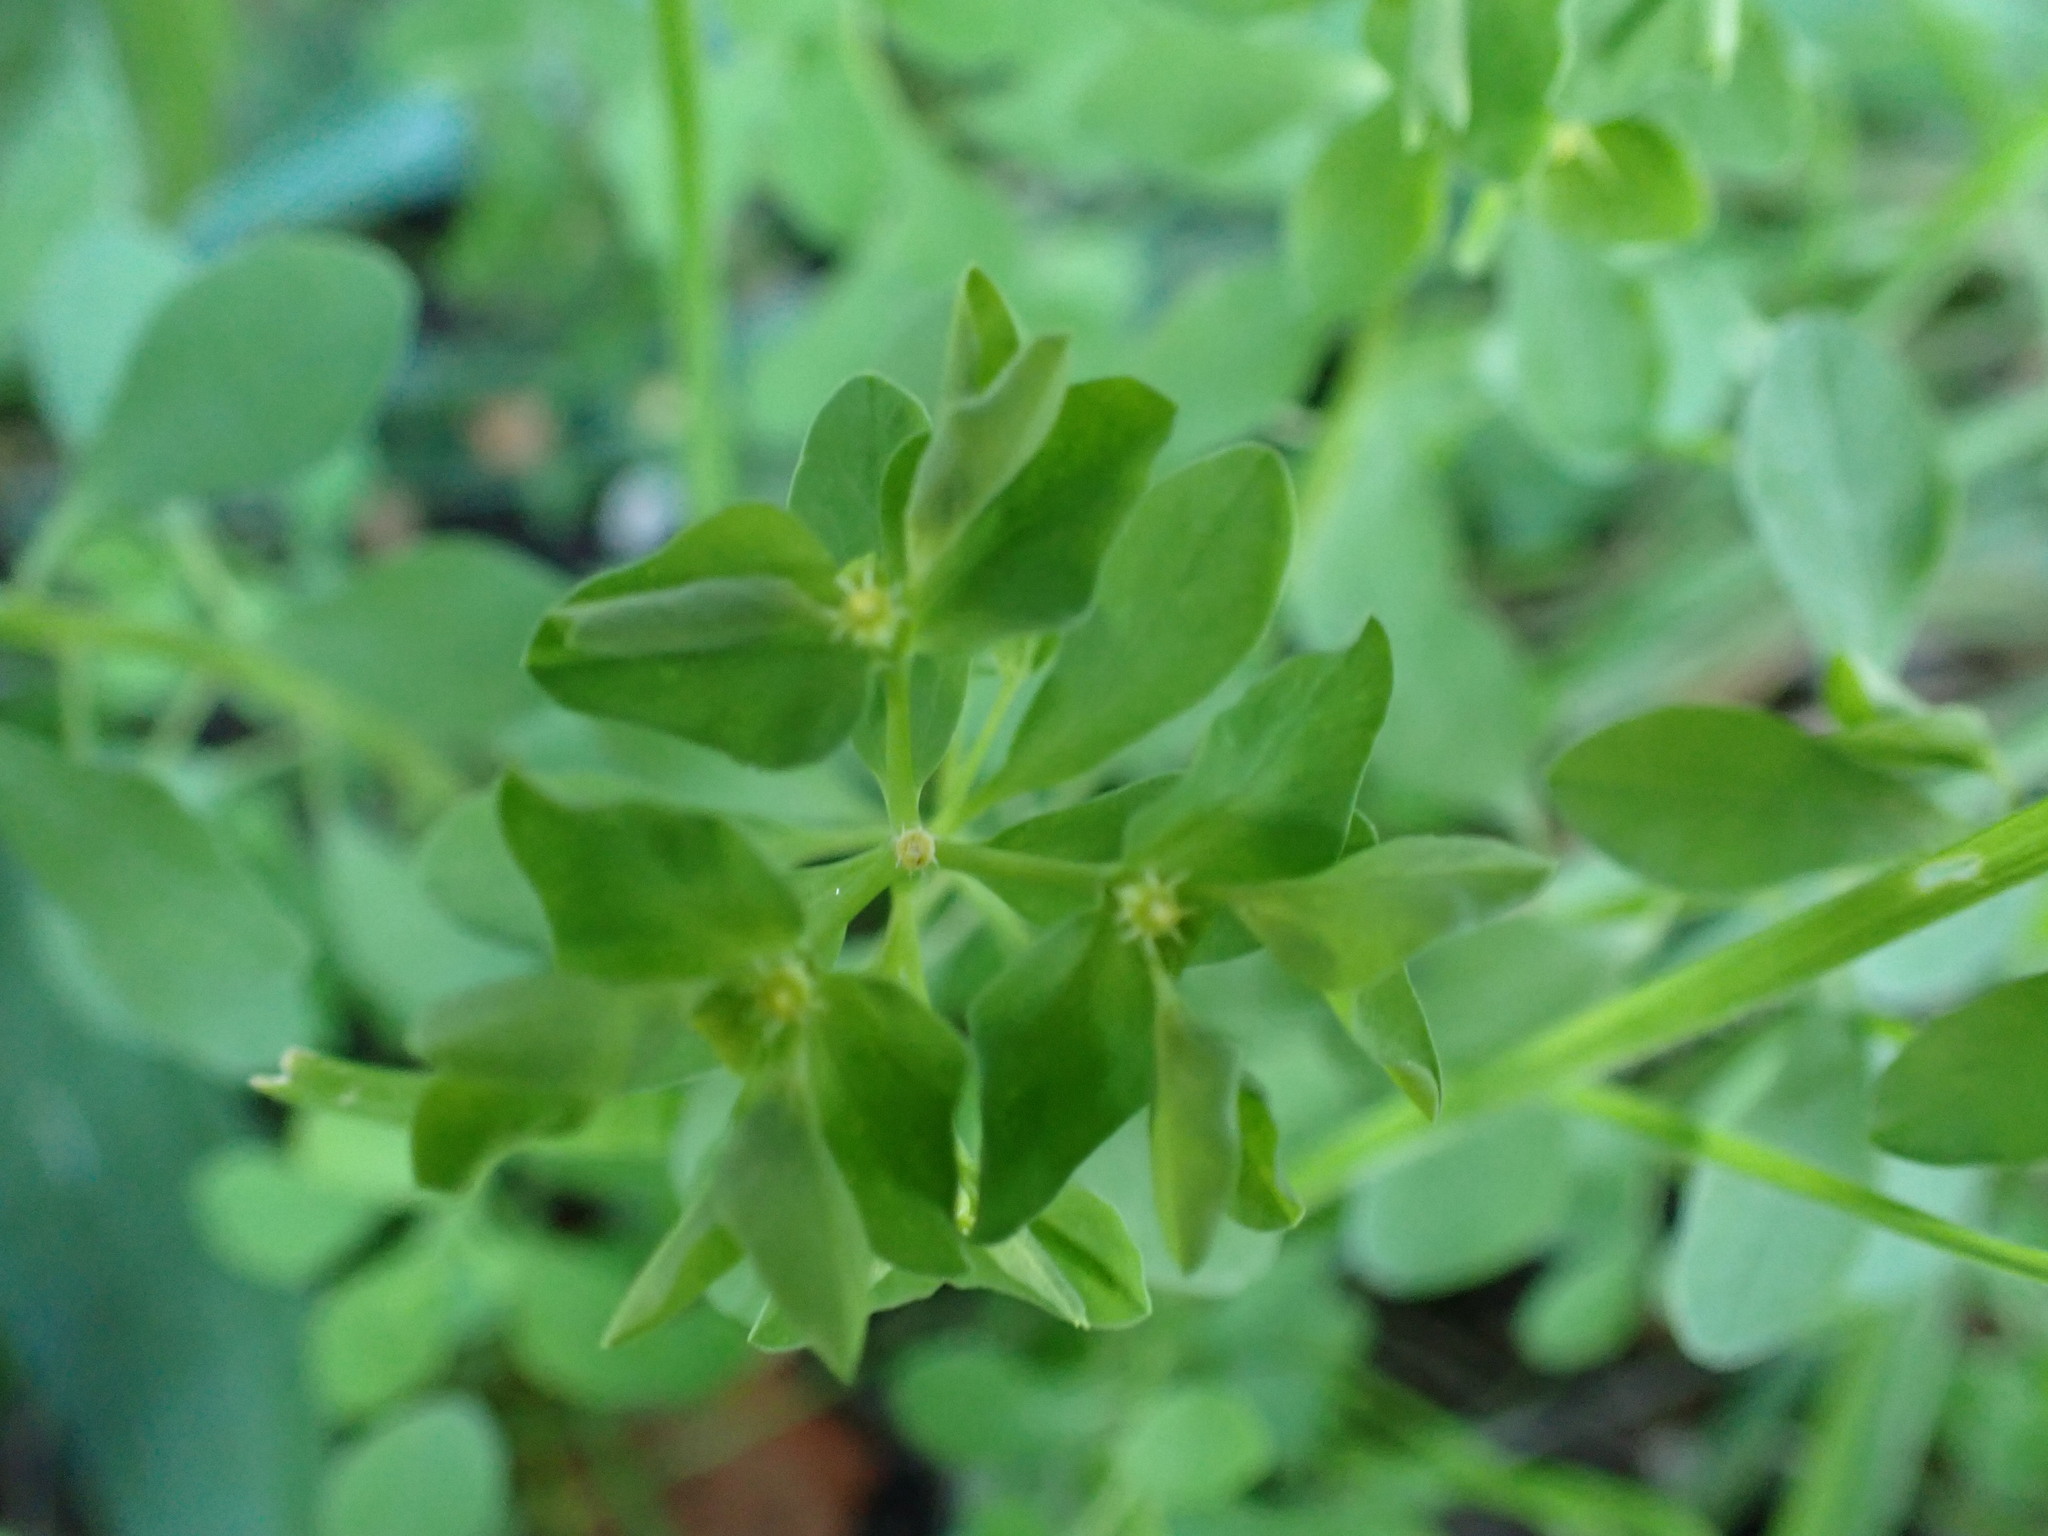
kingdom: Plantae
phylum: Tracheophyta
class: Magnoliopsida
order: Malpighiales
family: Euphorbiaceae
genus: Euphorbia
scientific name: Euphorbia peplus
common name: Petty spurge
